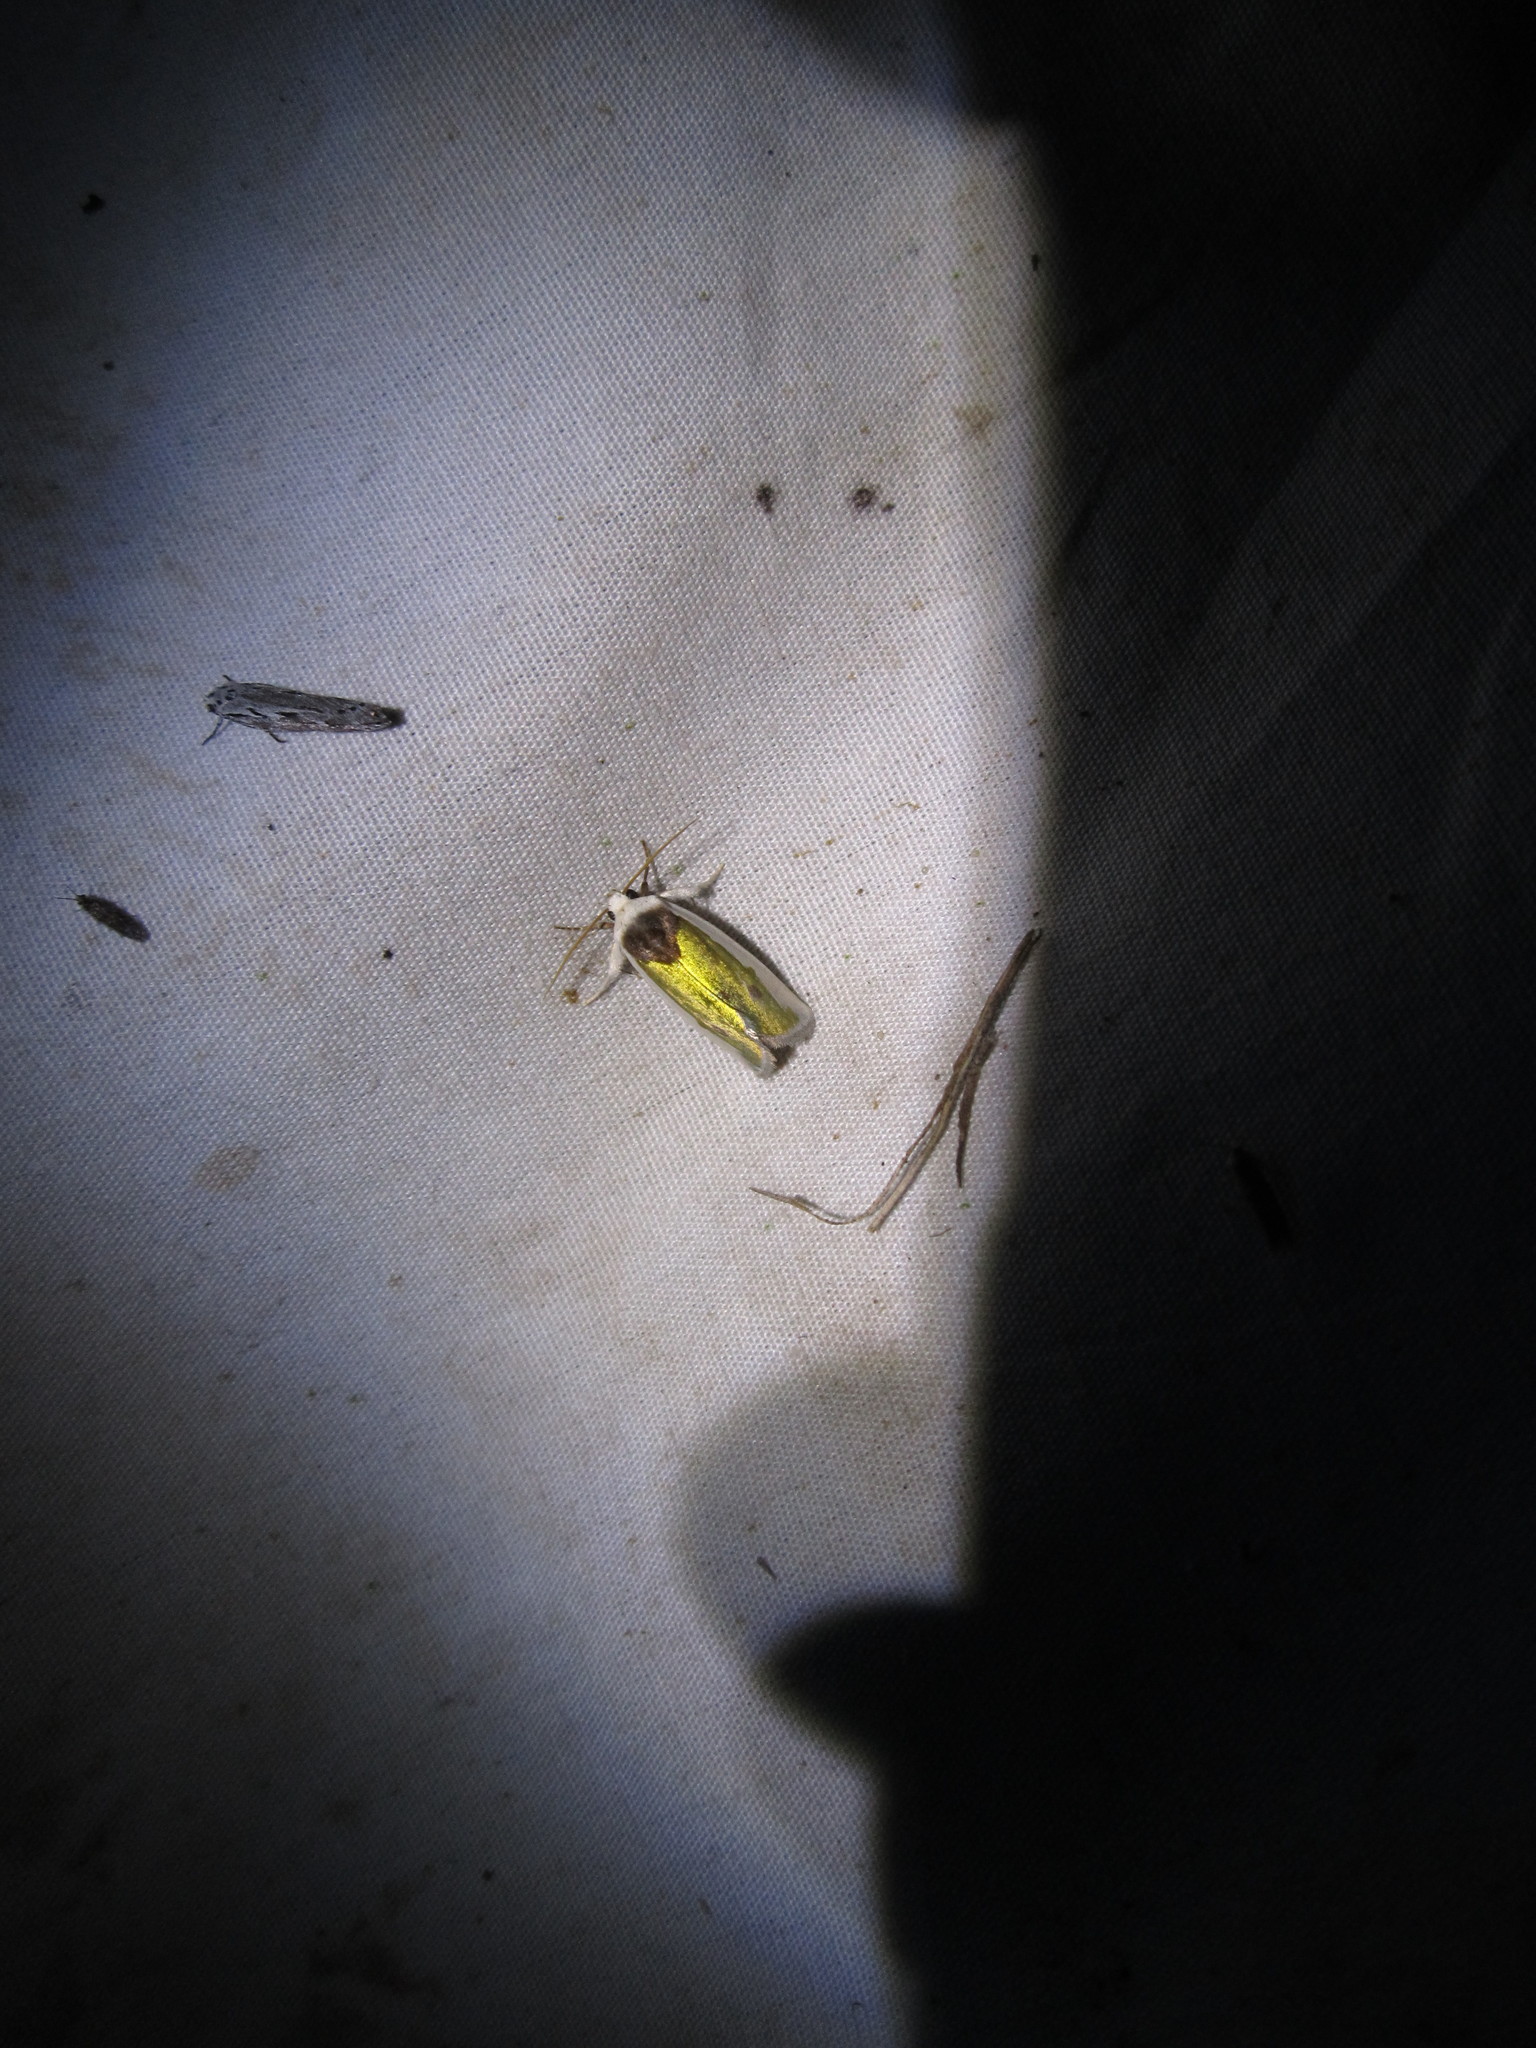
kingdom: Animalia
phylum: Arthropoda
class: Insecta
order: Lepidoptera
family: Noctuidae
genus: Neumoegenia
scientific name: Neumoegenia poetica
